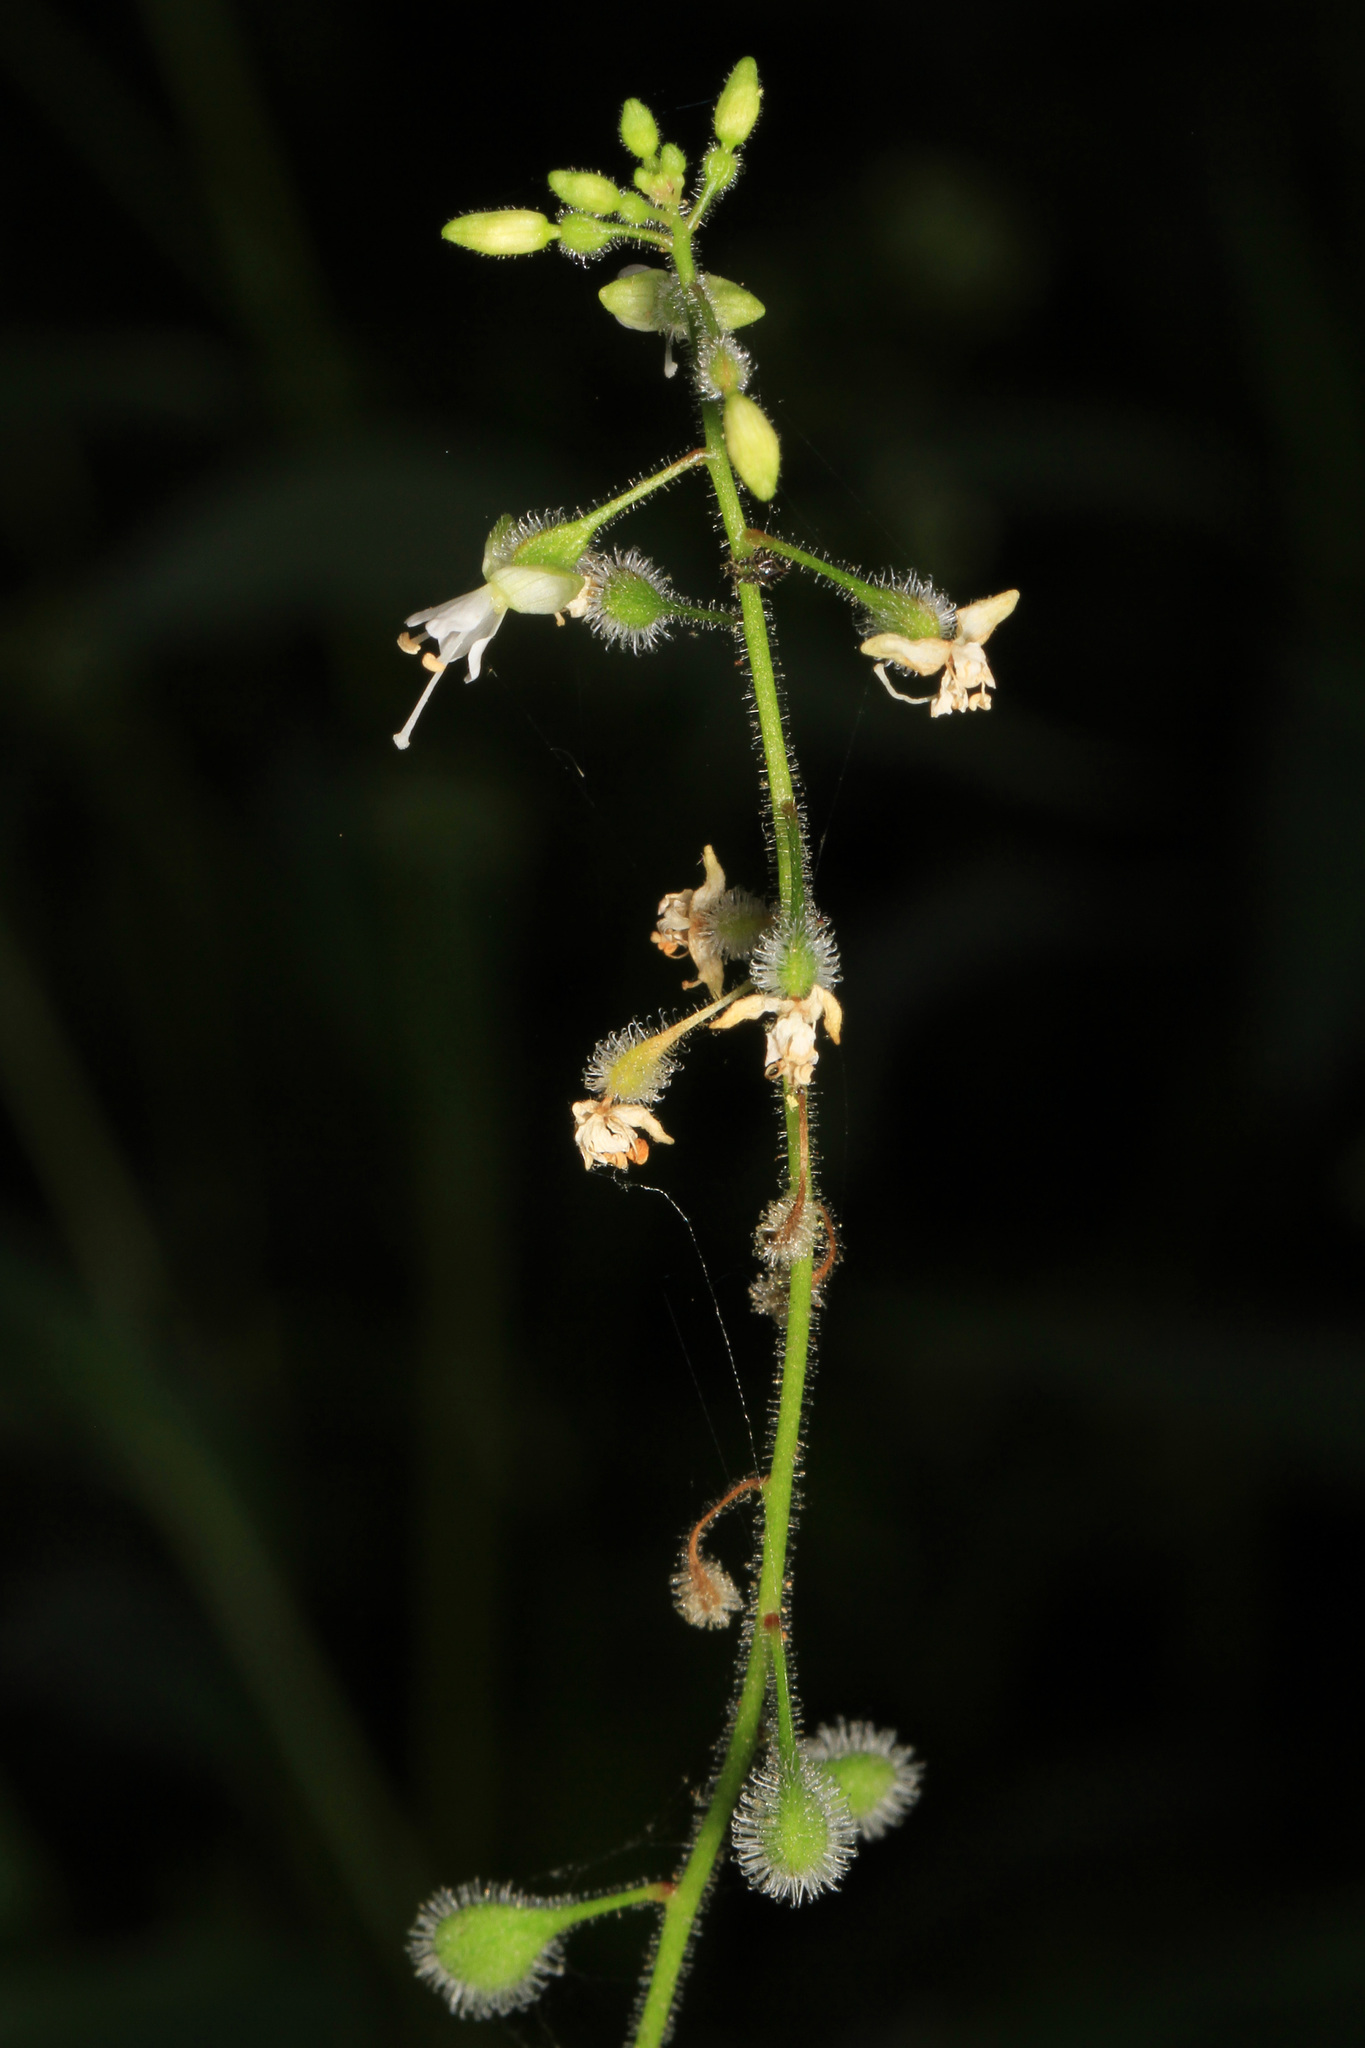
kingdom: Plantae
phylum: Tracheophyta
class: Magnoliopsida
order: Myrtales
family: Onagraceae
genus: Circaea
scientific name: Circaea canadensis
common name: Broad-leaved enchanter's nightshade
